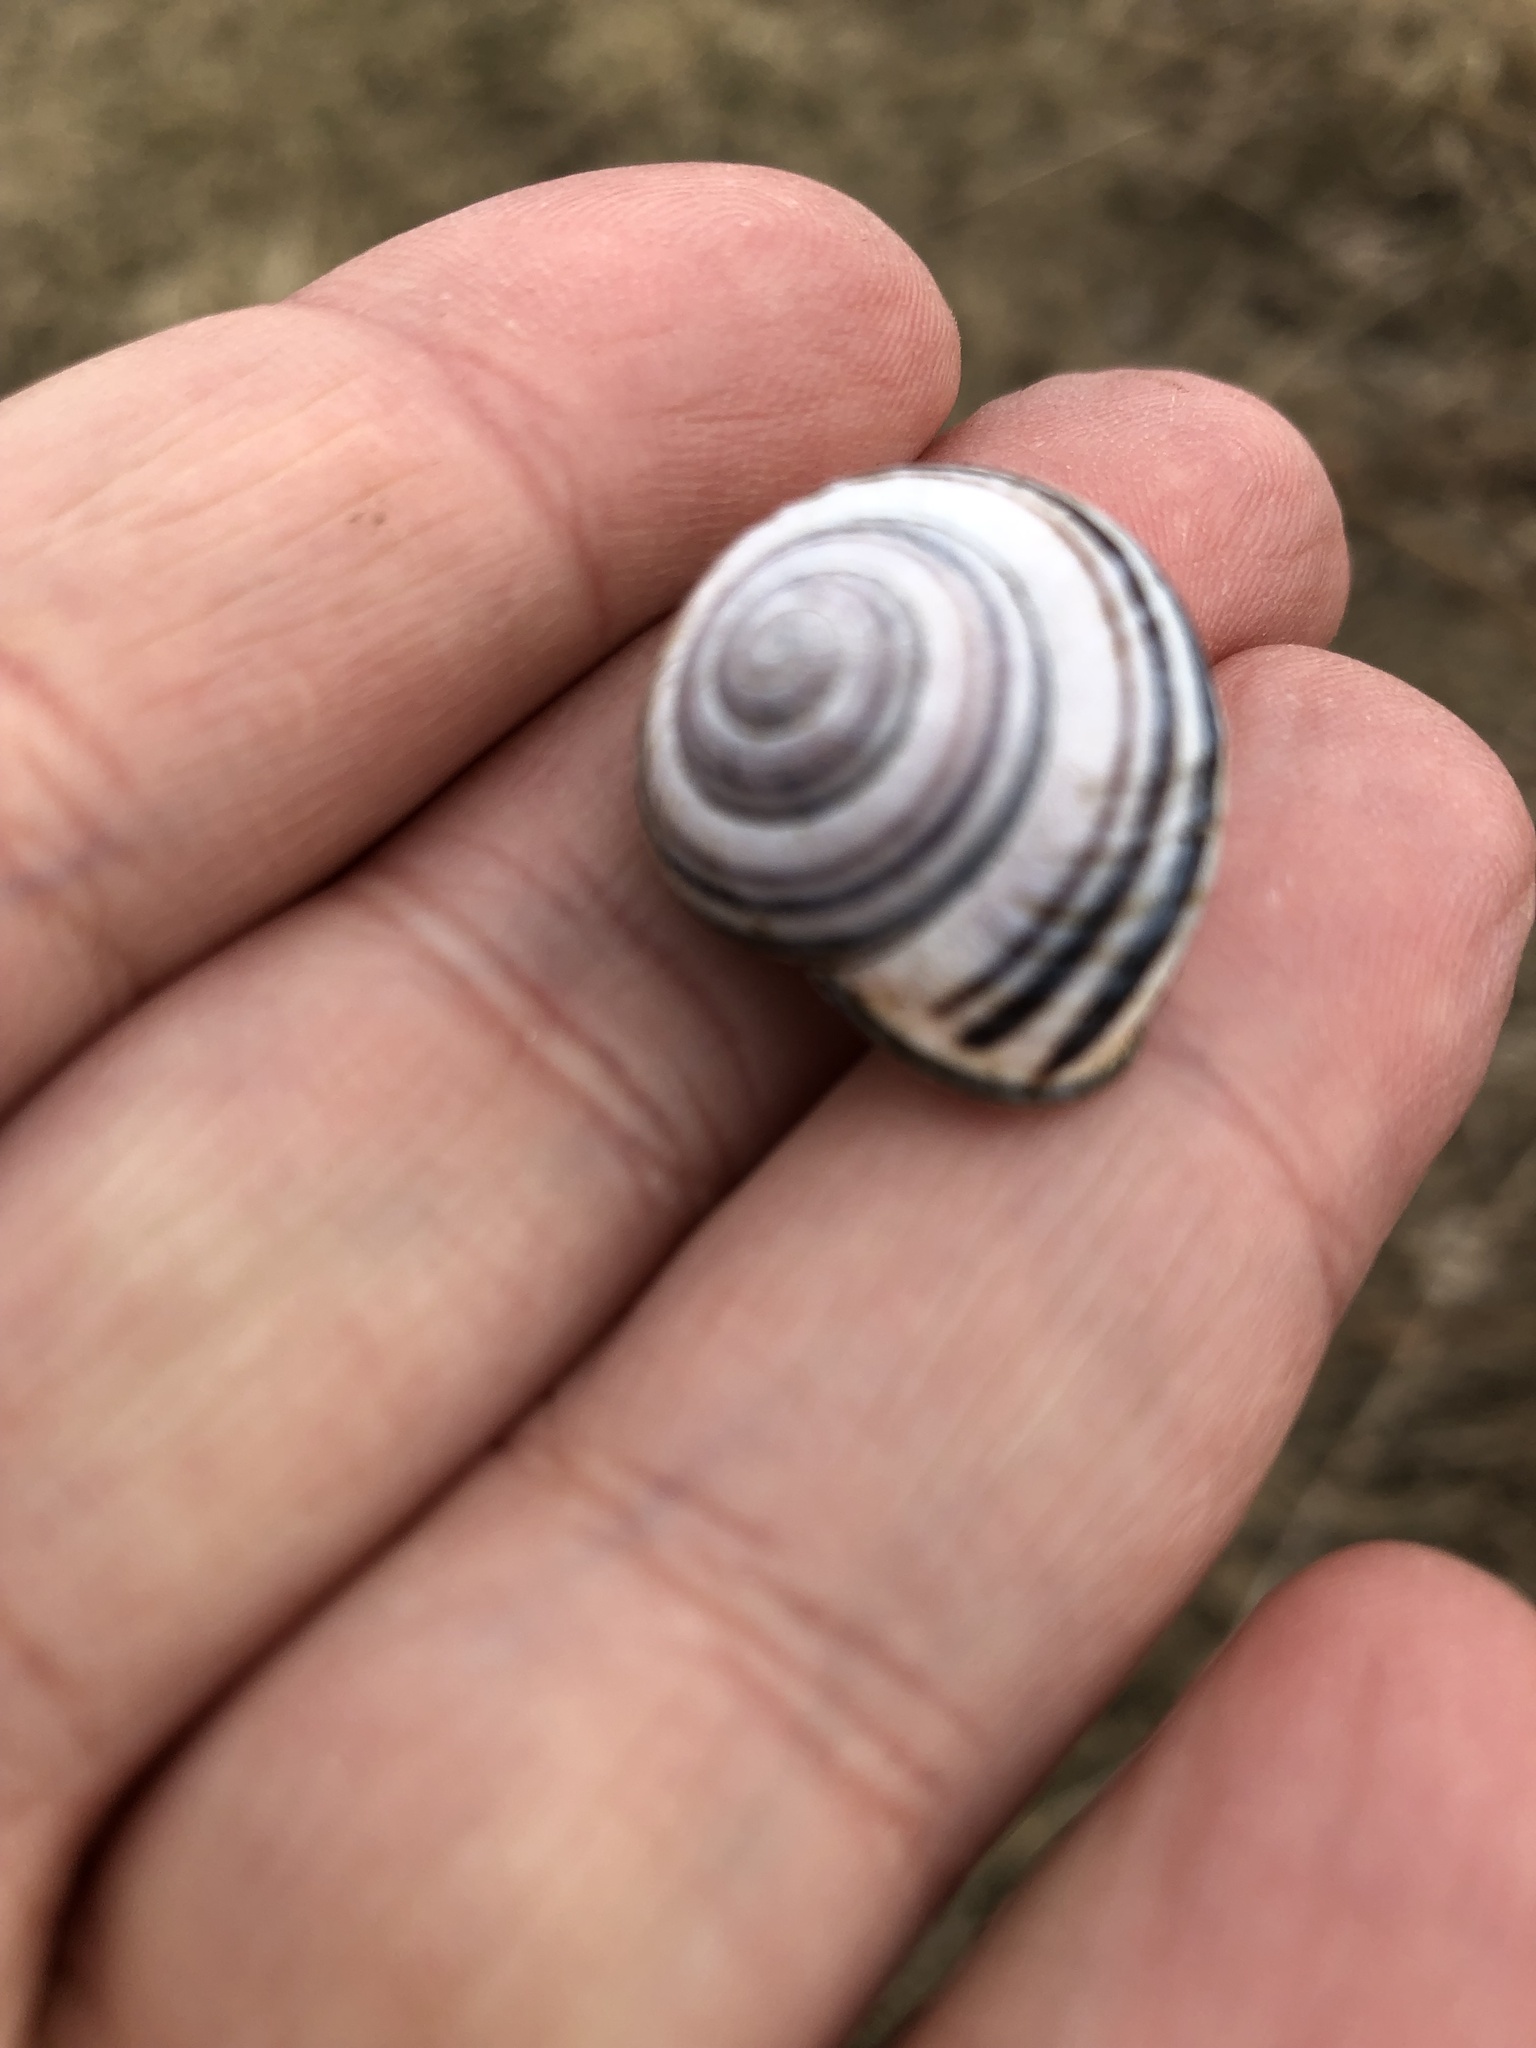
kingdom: Animalia
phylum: Mollusca
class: Gastropoda
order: Stylommatophora
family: Helicidae
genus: Cepaea
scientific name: Cepaea nemoralis
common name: Grovesnail
